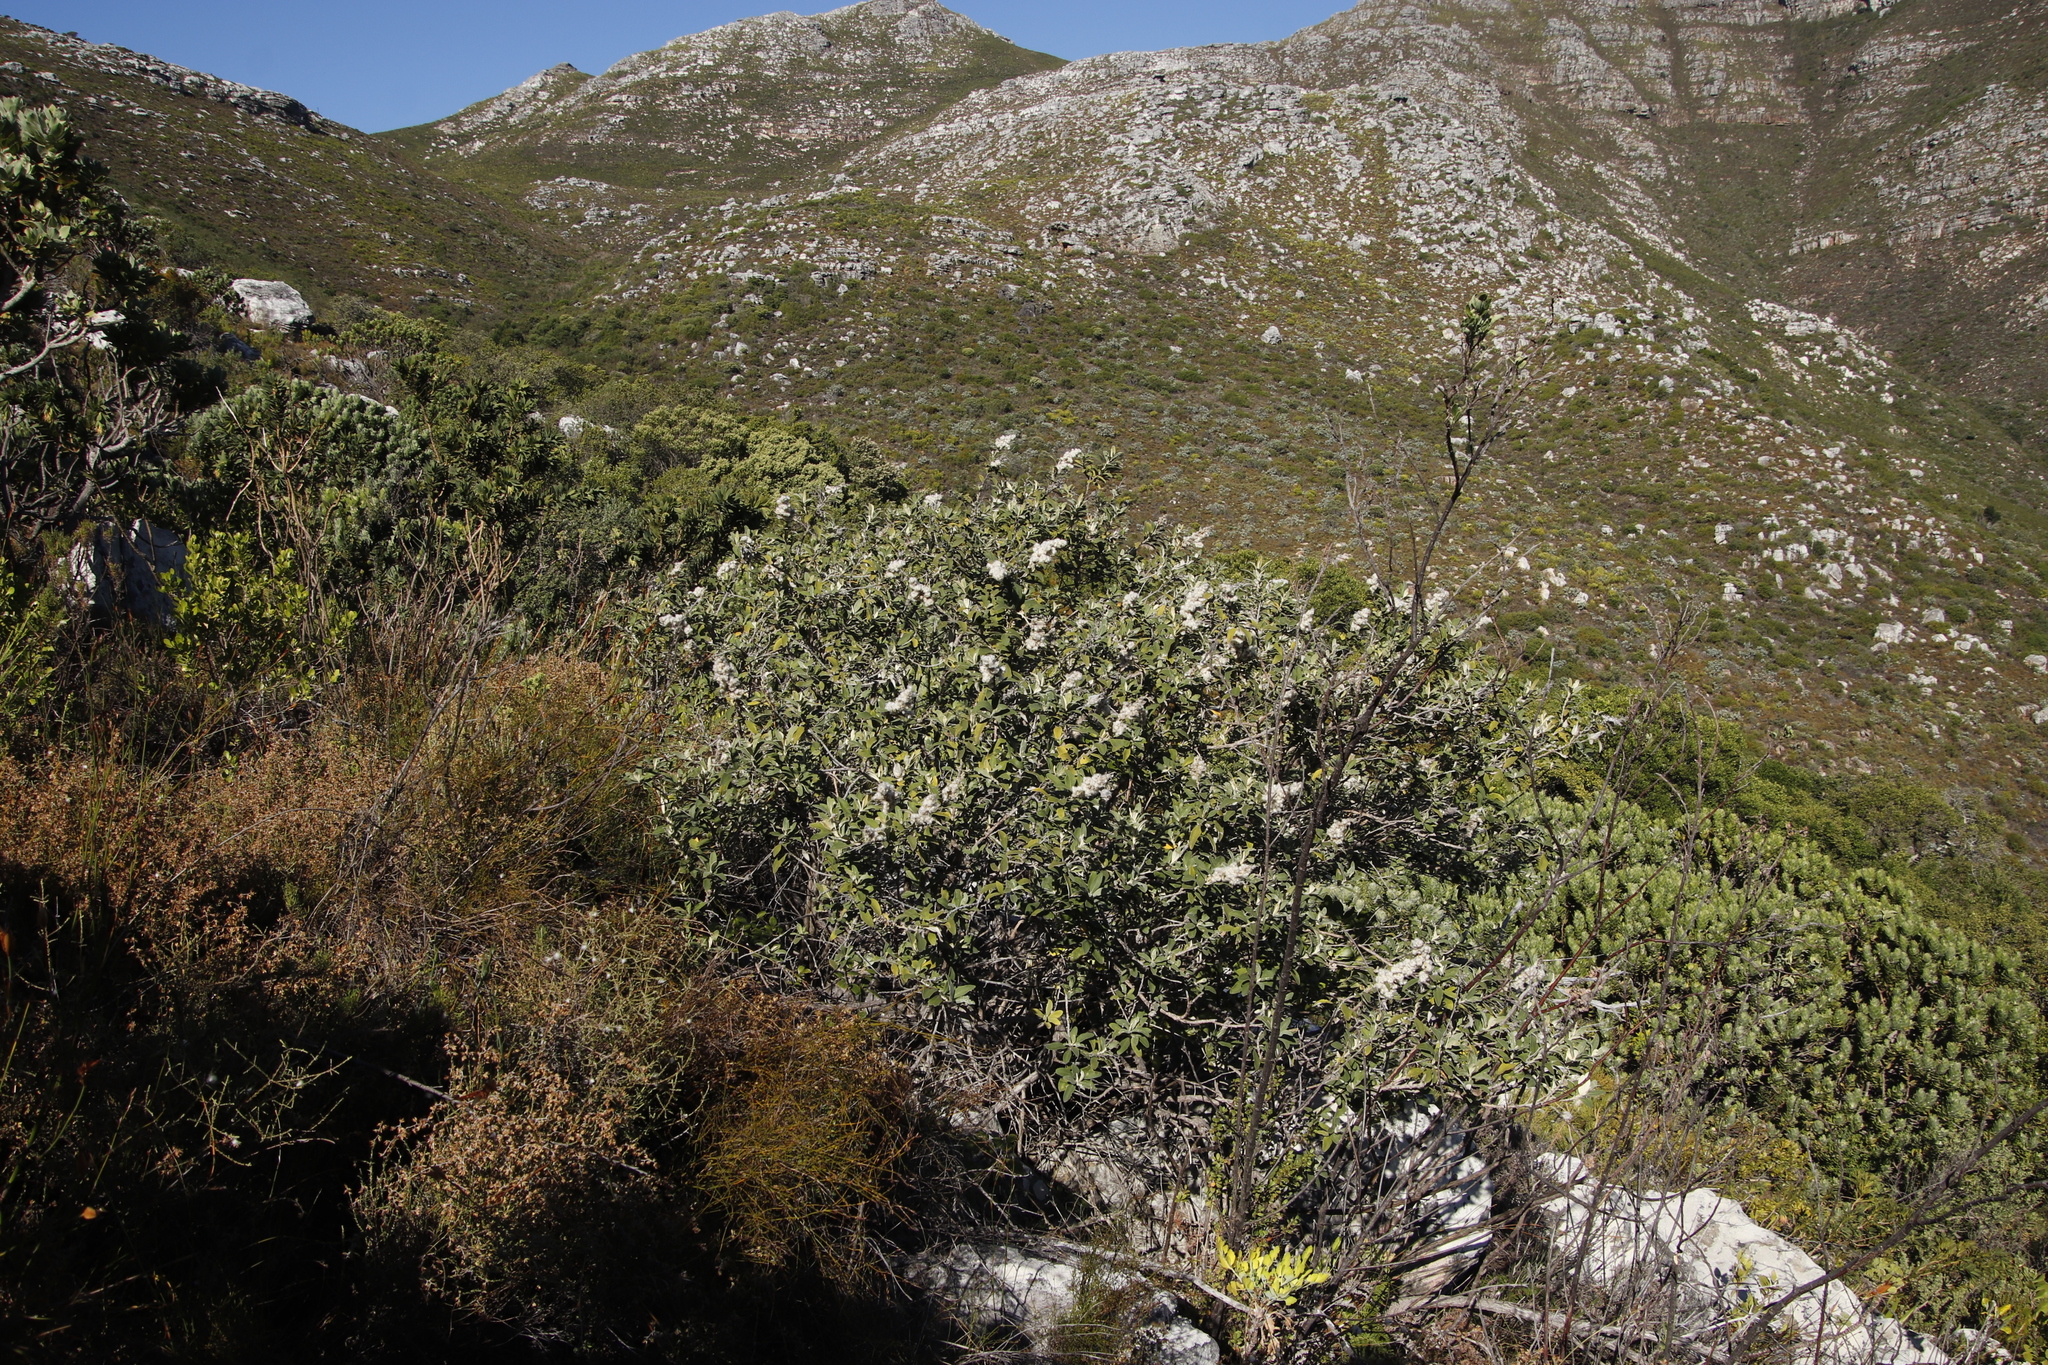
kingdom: Plantae
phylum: Tracheophyta
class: Magnoliopsida
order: Asterales
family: Asteraceae
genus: Tarchonanthus
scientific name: Tarchonanthus littoralis
